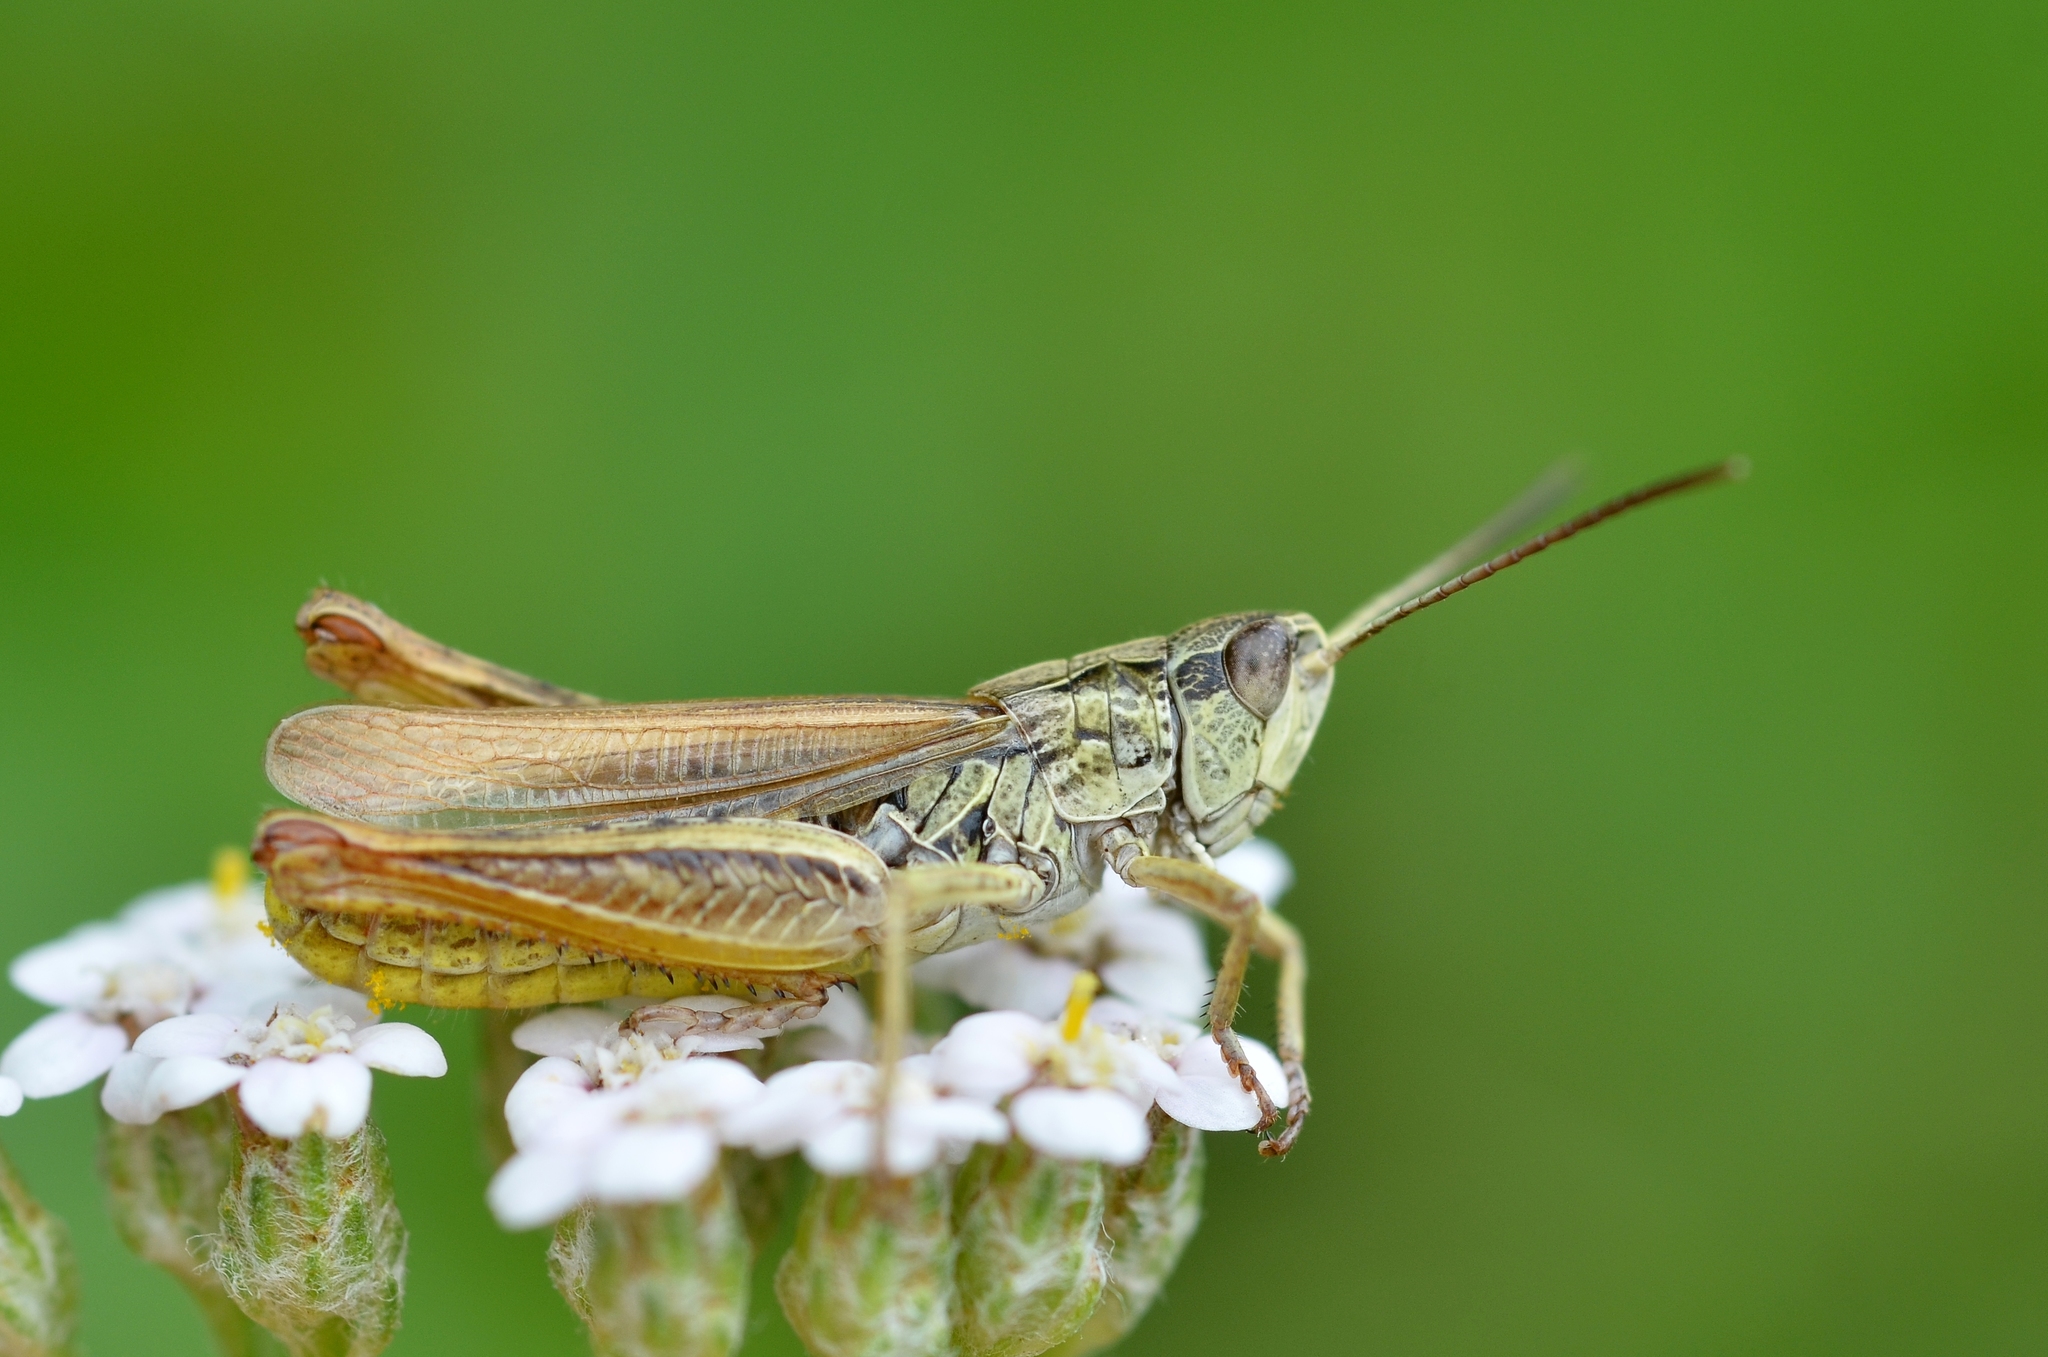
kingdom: Animalia
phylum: Arthropoda
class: Insecta
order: Orthoptera
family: Acrididae
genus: Chorthippus
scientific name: Chorthippus apricarius
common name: Upland field grasshopper
